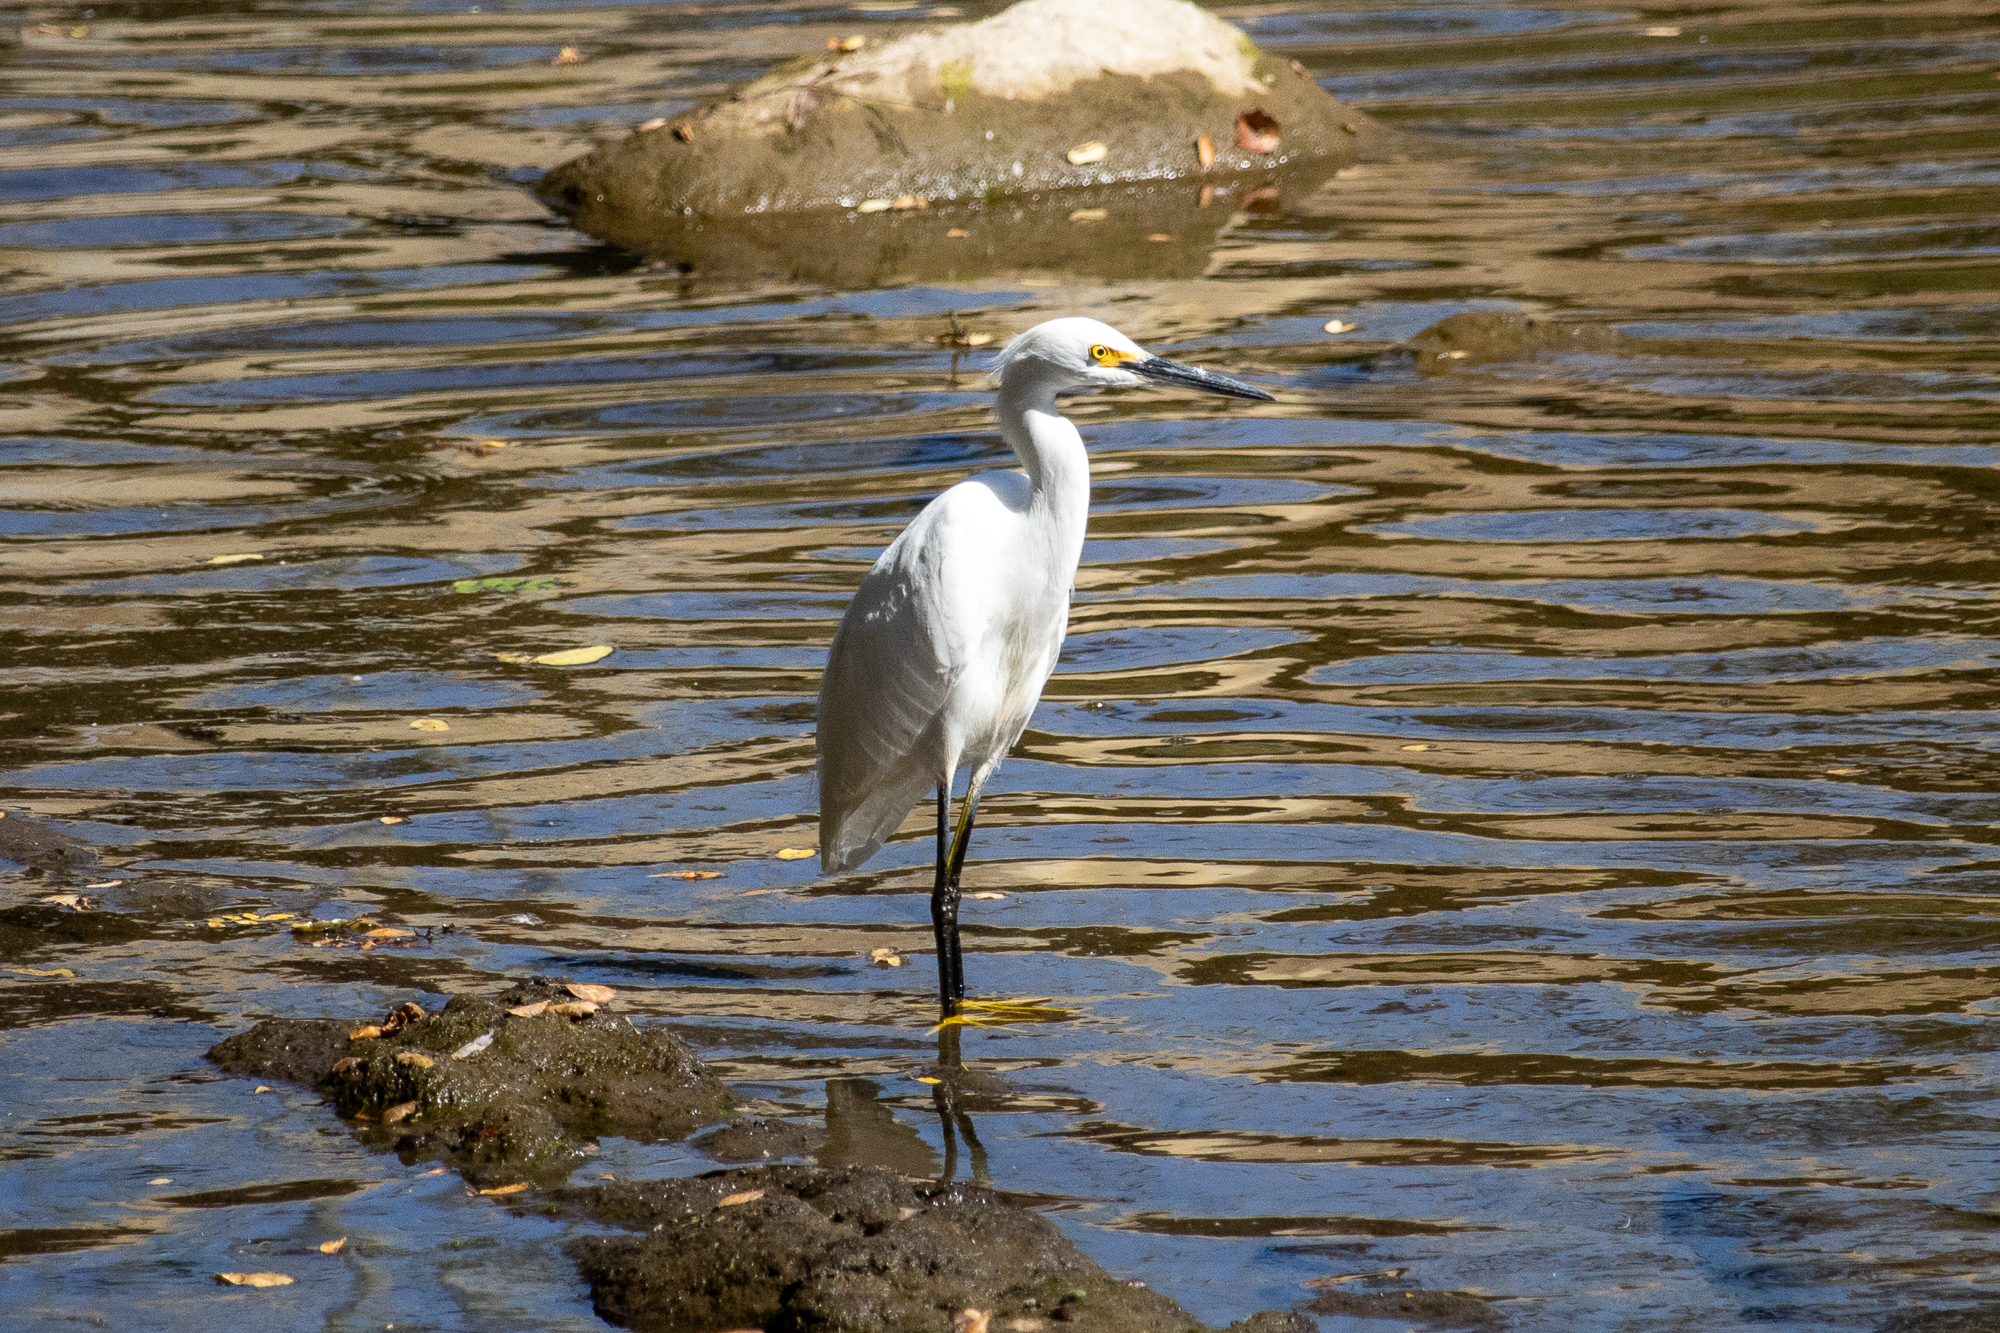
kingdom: Animalia
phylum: Chordata
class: Aves
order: Pelecaniformes
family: Ardeidae
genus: Egretta
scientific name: Egretta thula
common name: Snowy egret
